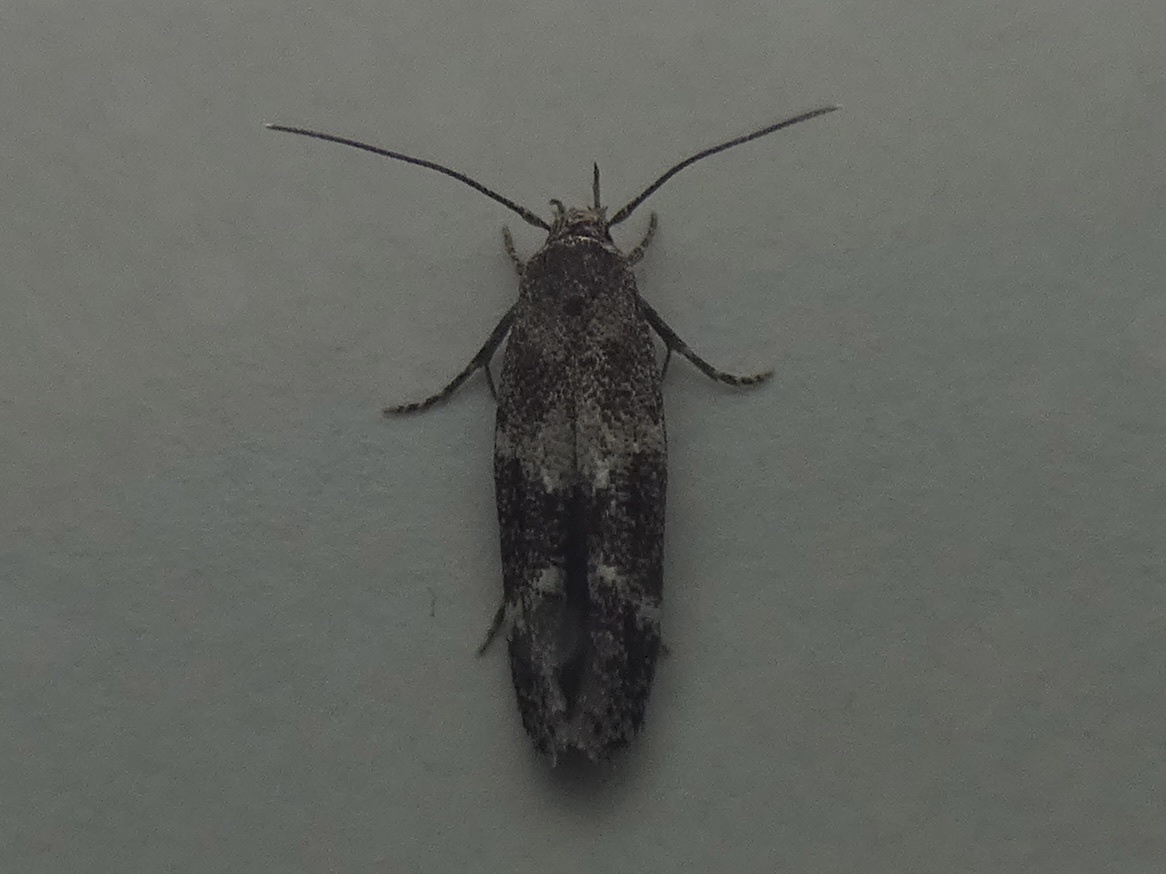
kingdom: Animalia
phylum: Arthropoda
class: Insecta
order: Lepidoptera
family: Momphidae
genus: Mompha
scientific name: Mompha subbistrigella
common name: Garden cosmet
